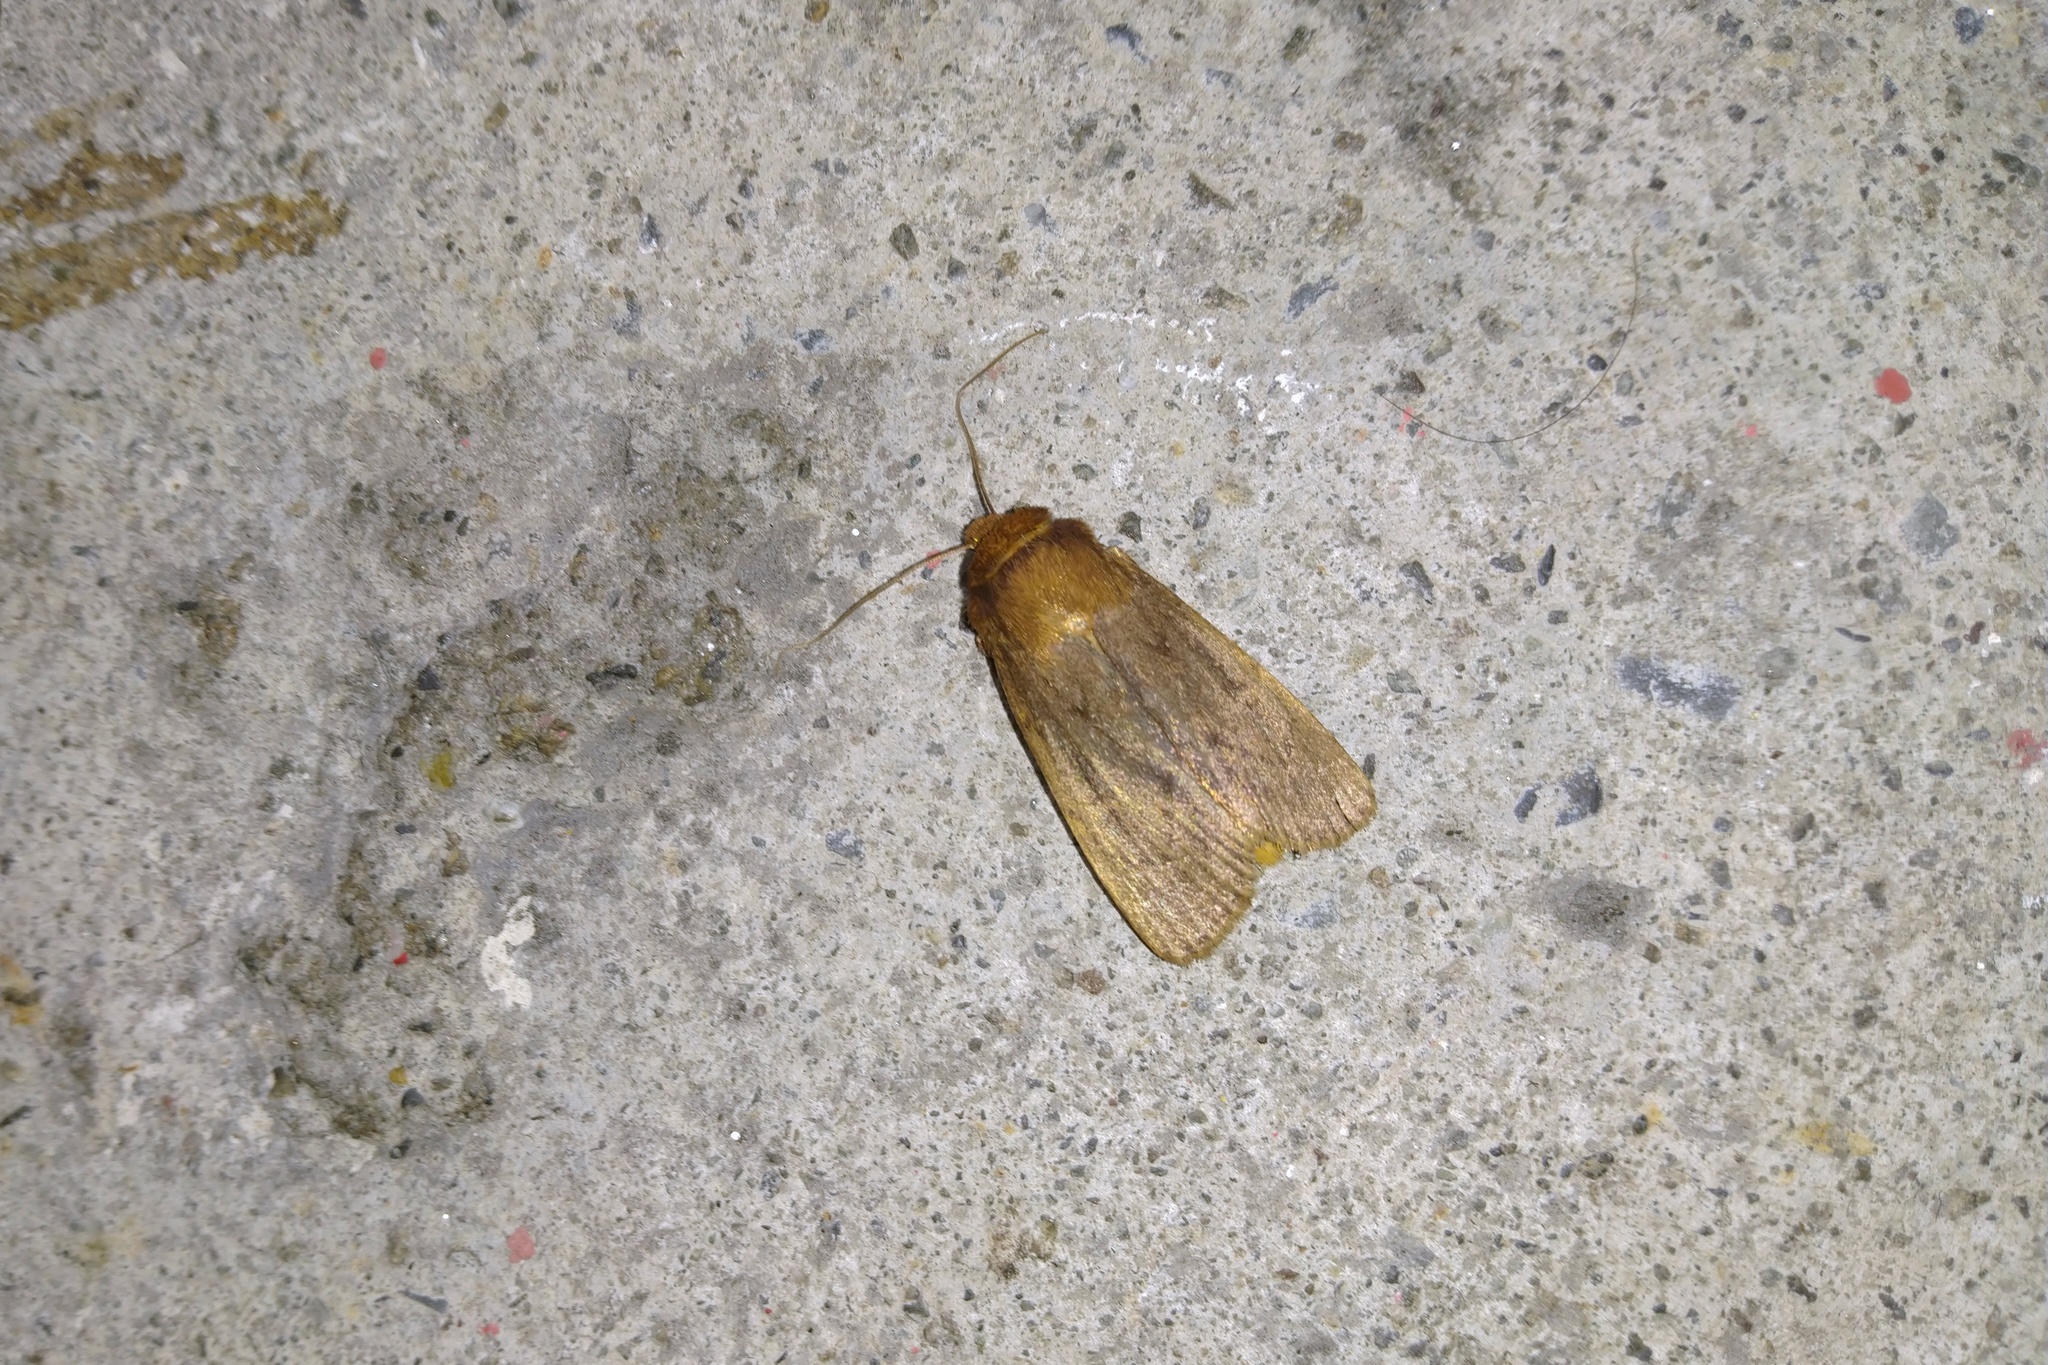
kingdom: Animalia
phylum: Arthropoda
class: Insecta
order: Lepidoptera
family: Noctuidae
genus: Bityla
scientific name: Bityla defigurata
